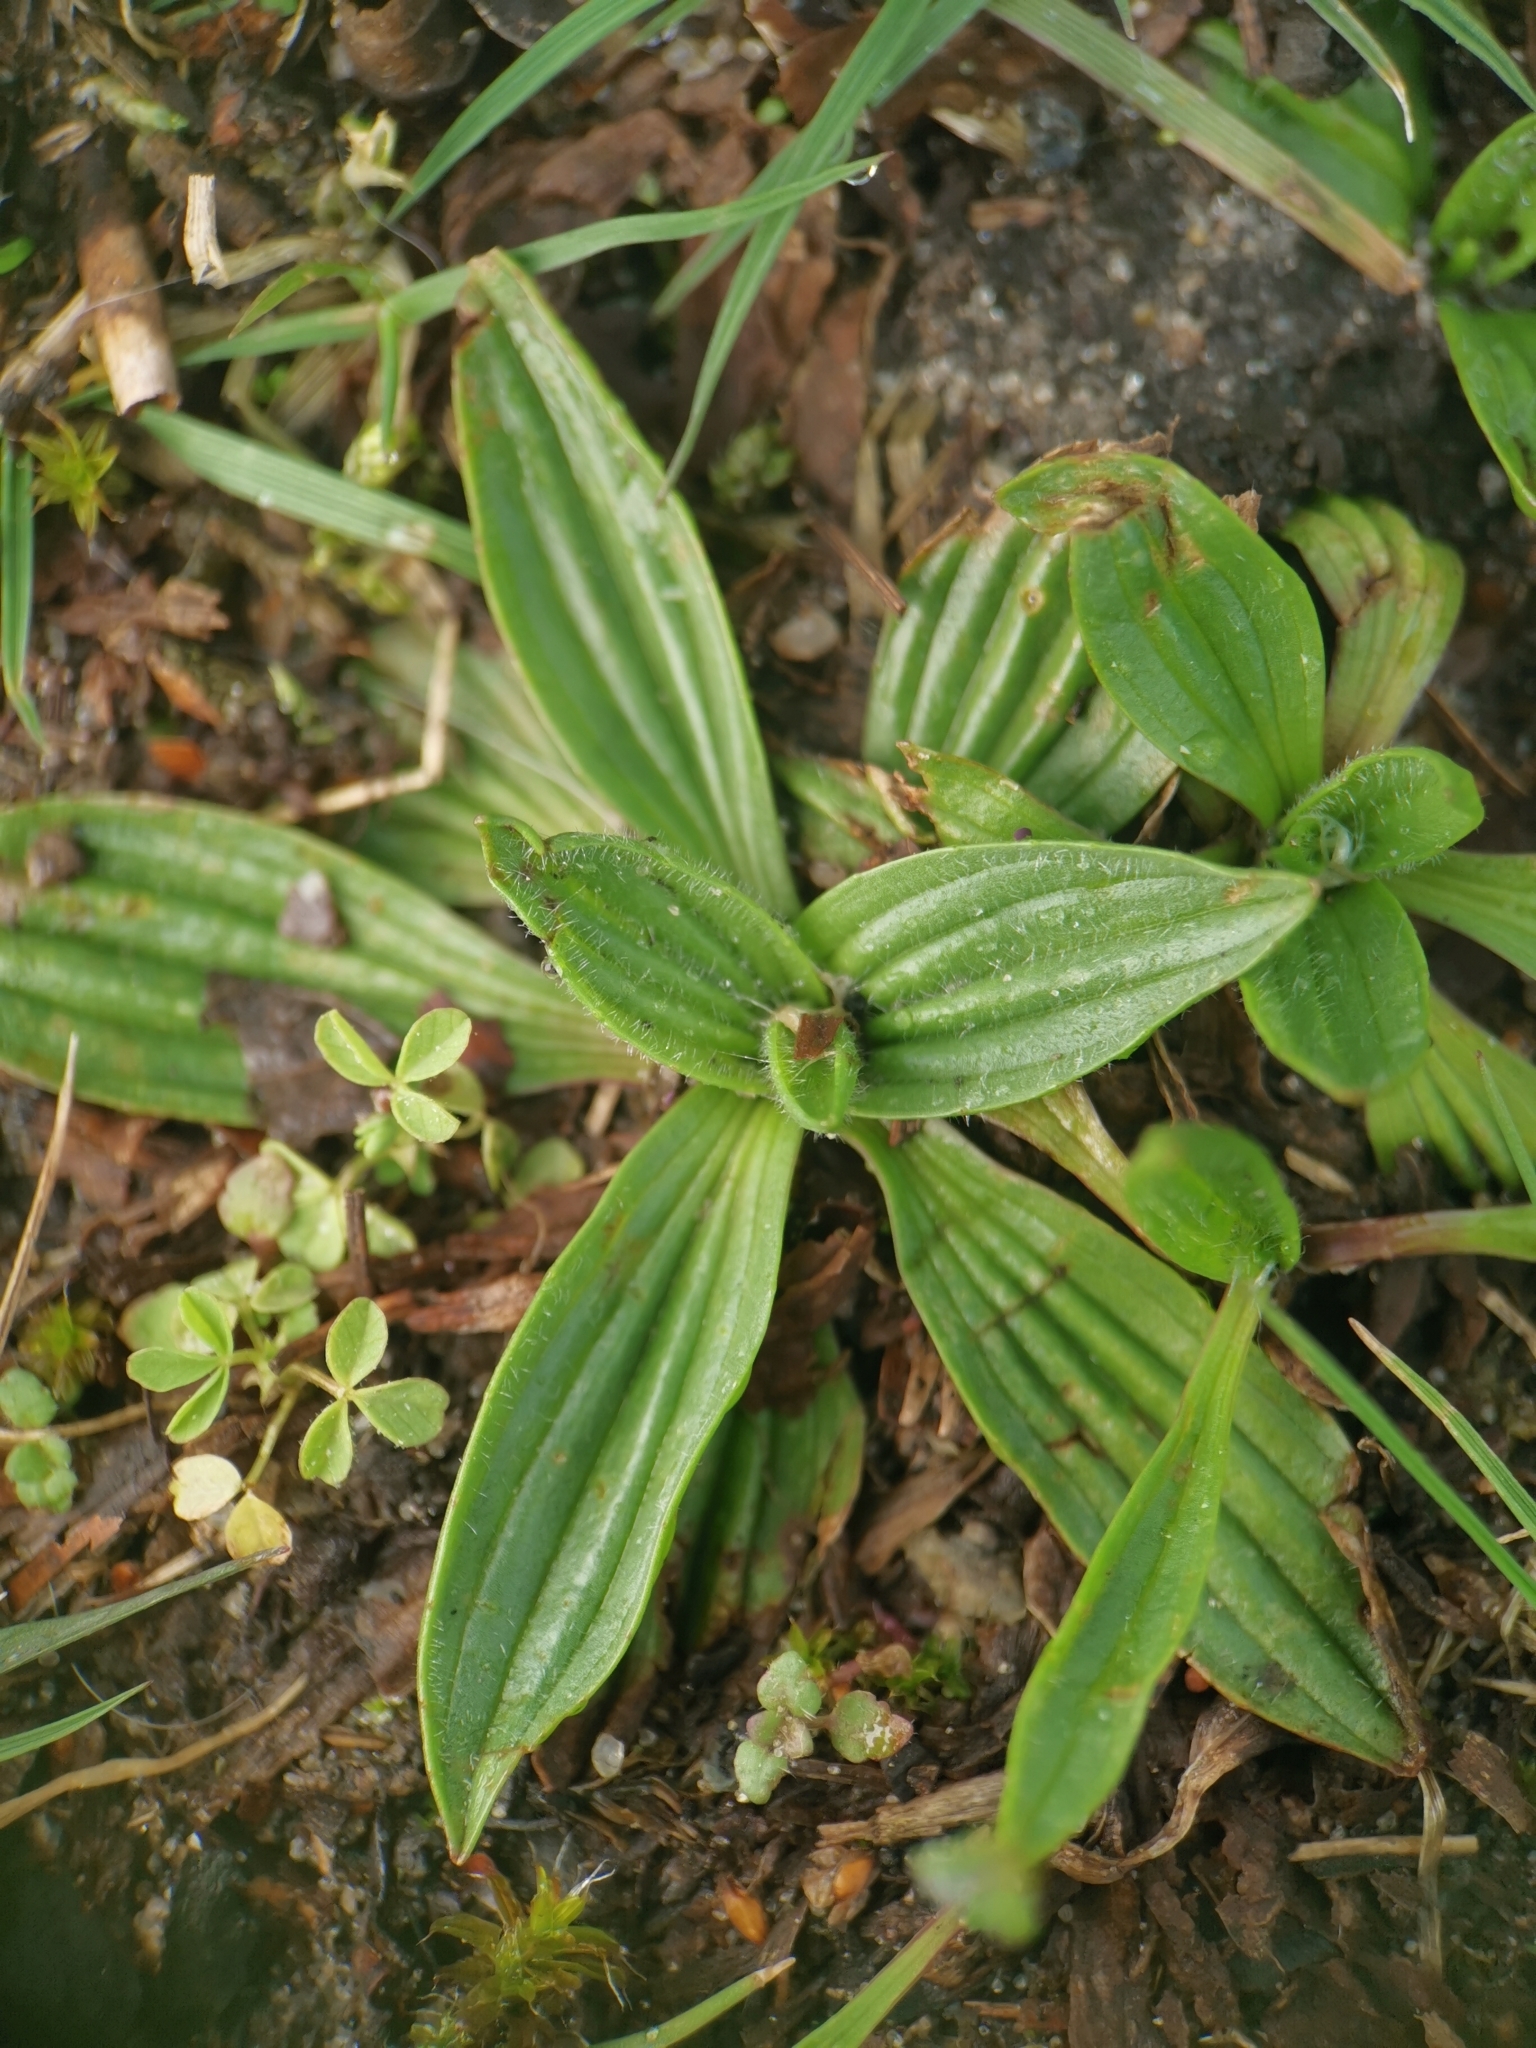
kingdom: Plantae
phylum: Tracheophyta
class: Magnoliopsida
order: Lamiales
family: Plantaginaceae
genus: Plantago
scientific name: Plantago lanceolata
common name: Ribwort plantain
